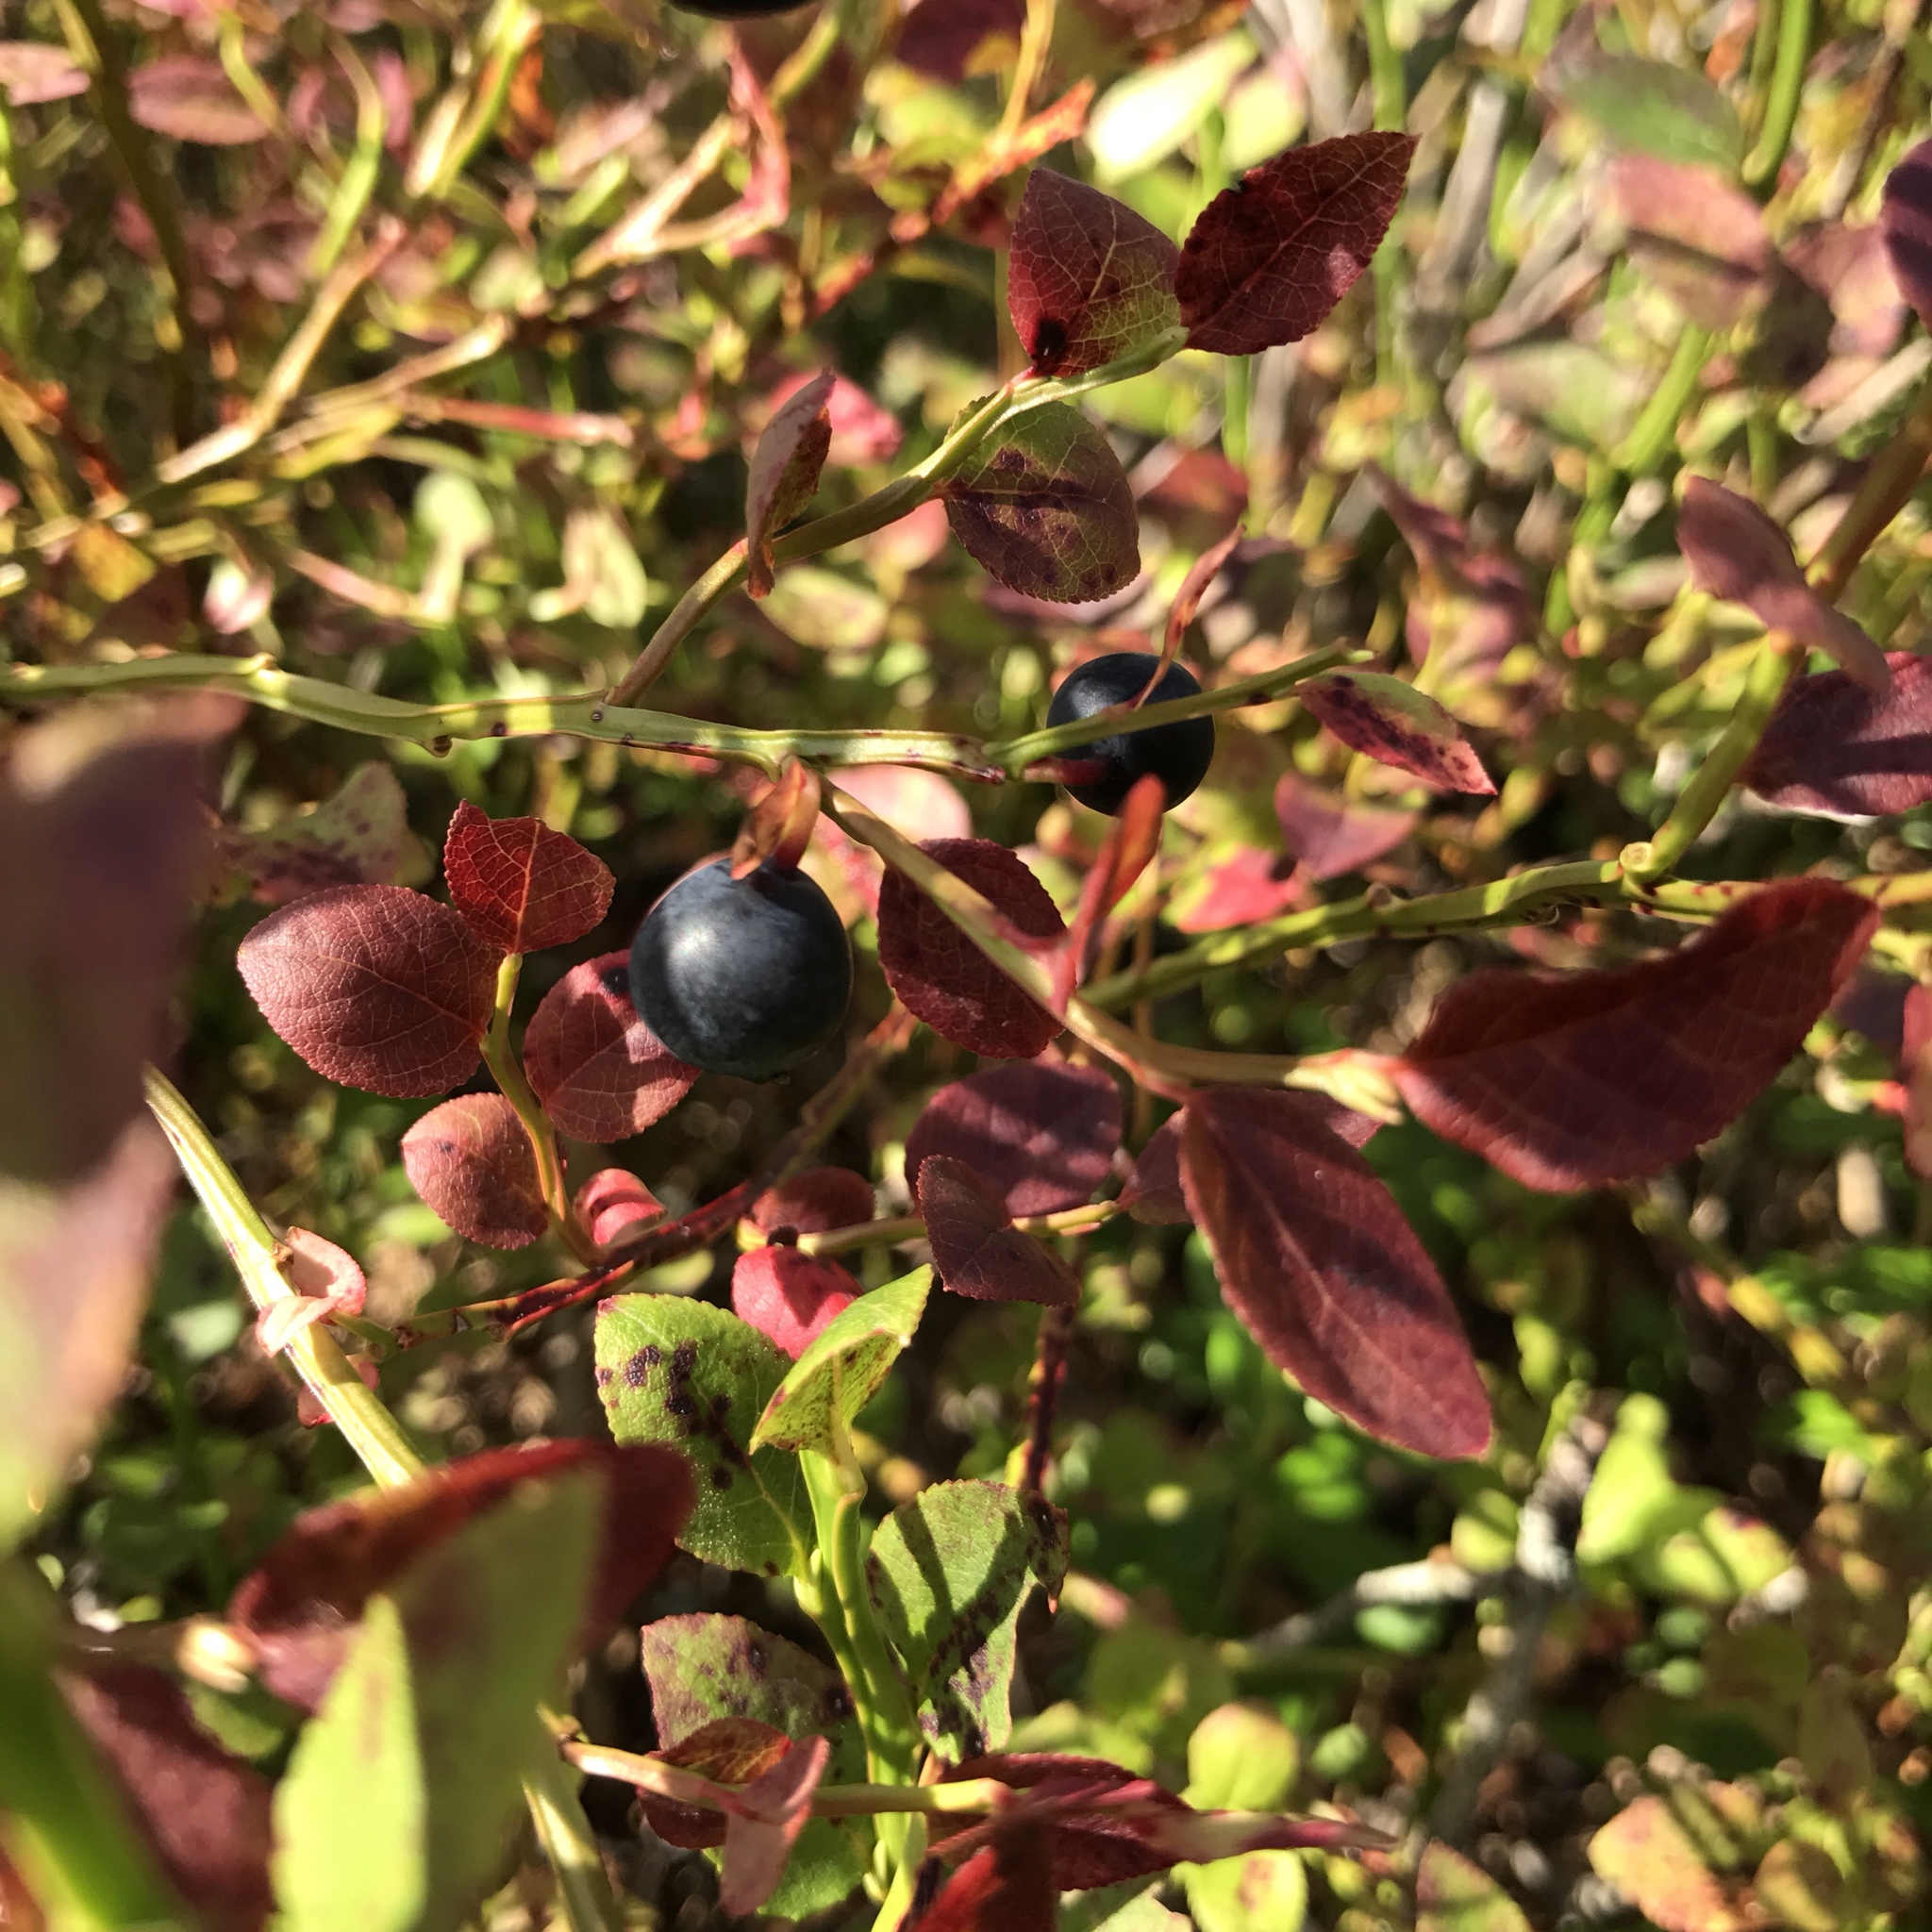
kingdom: Plantae
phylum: Tracheophyta
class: Magnoliopsida
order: Ericales
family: Ericaceae
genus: Vaccinium
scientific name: Vaccinium myrtillus
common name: Bilberry
